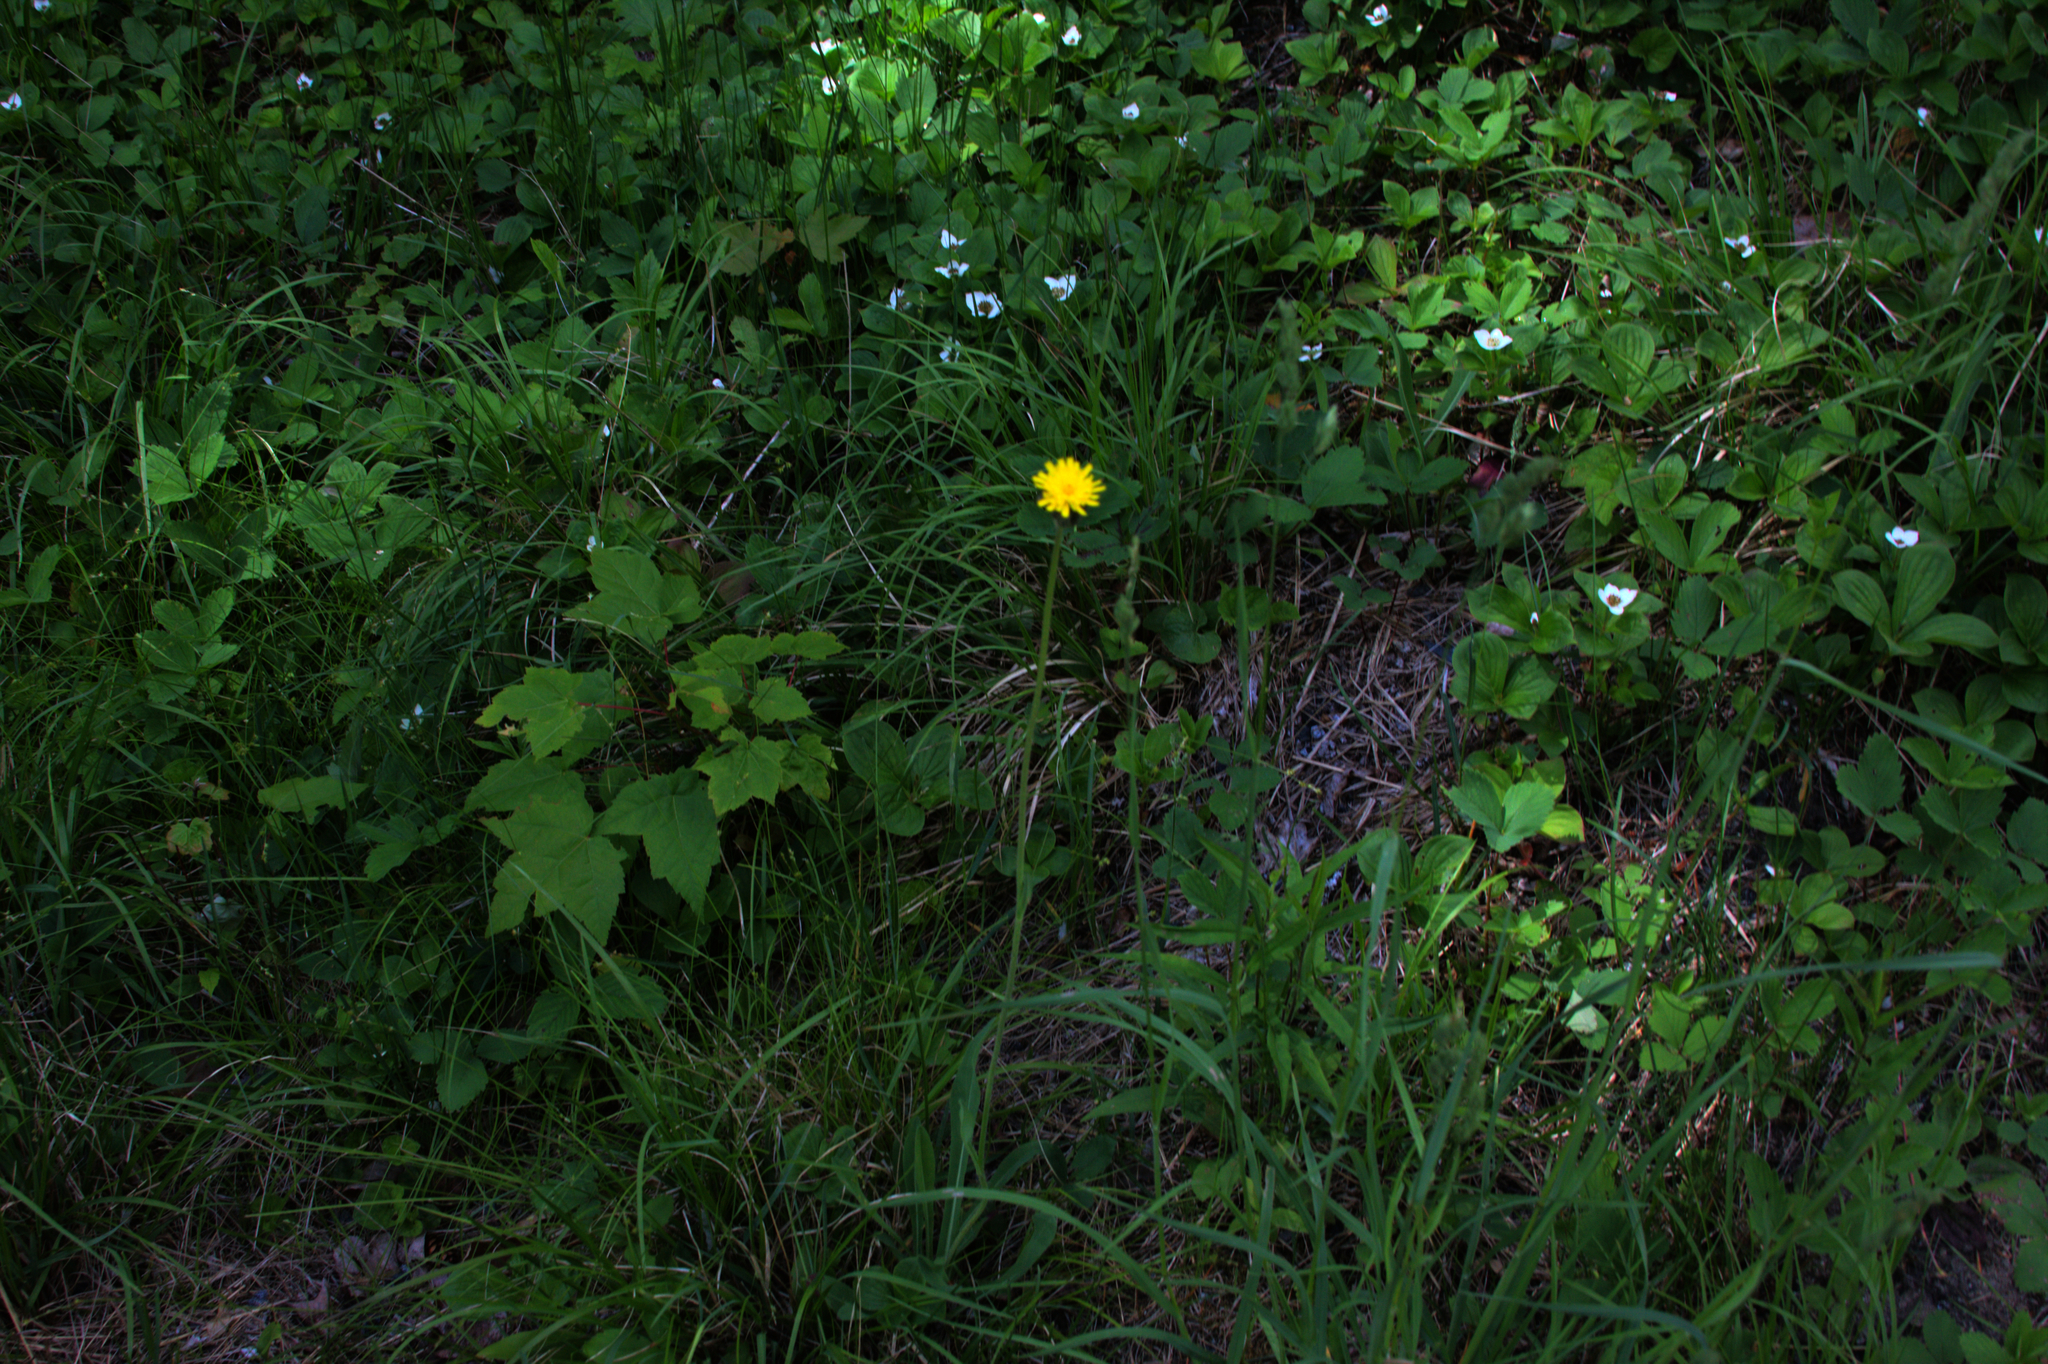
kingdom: Plantae
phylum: Tracheophyta
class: Magnoliopsida
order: Cornales
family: Cornaceae
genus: Cornus
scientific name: Cornus canadensis
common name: Creeping dogwood
